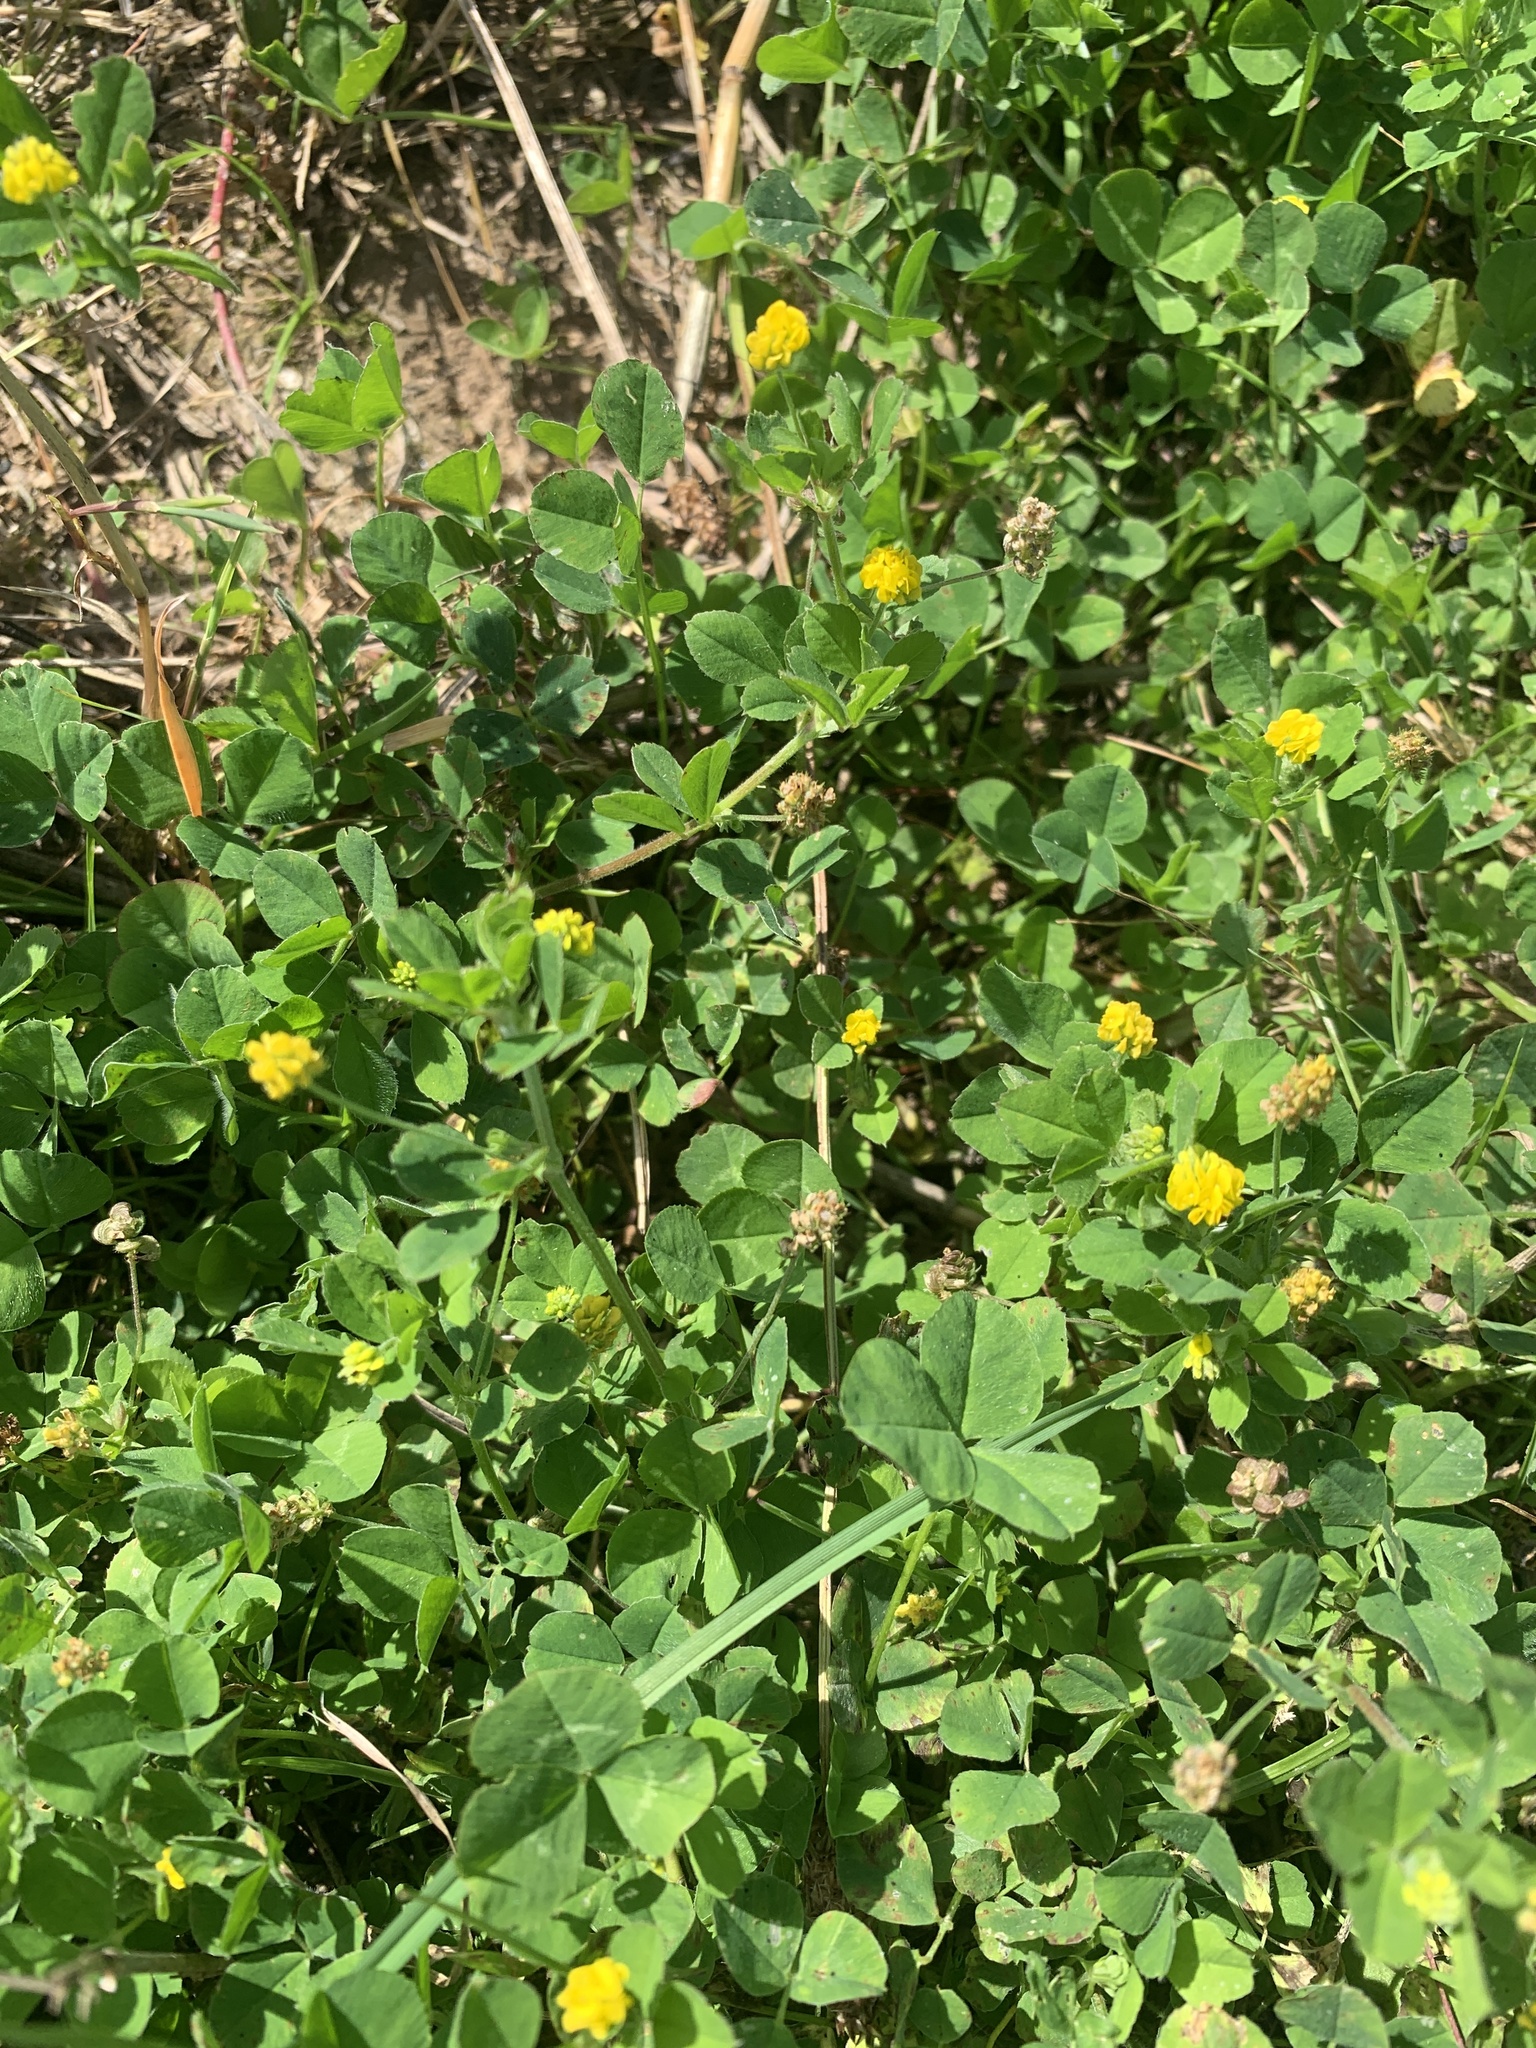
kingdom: Plantae
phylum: Tracheophyta
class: Magnoliopsida
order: Fabales
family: Fabaceae
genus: Medicago
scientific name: Medicago lupulina
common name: Black medick
